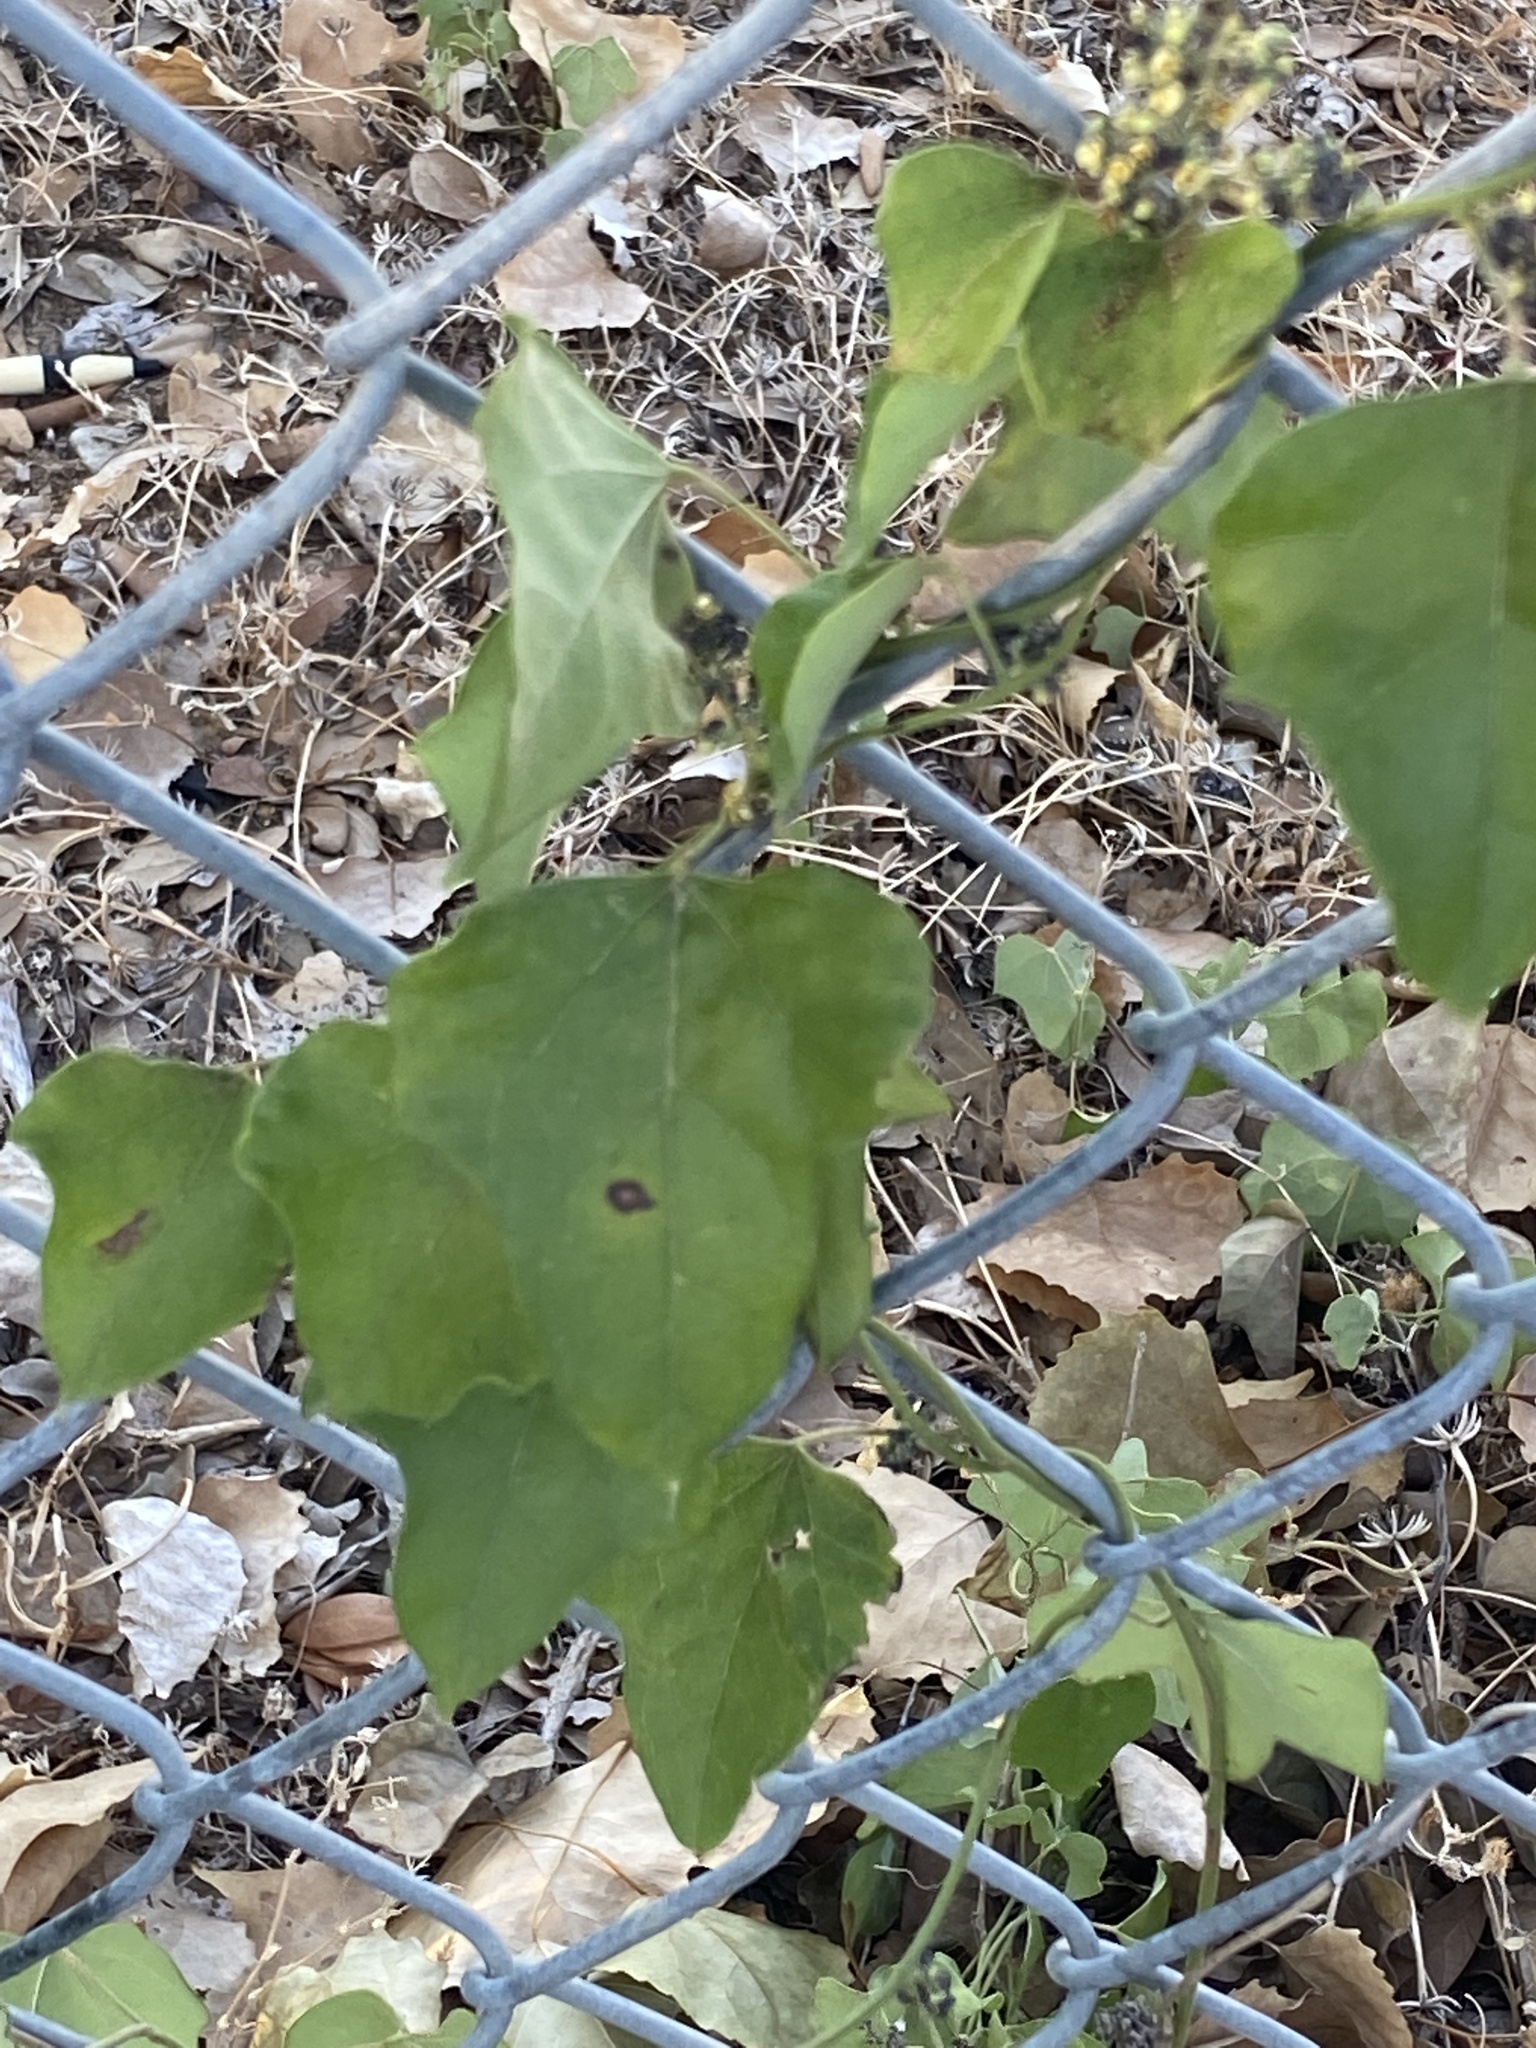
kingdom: Plantae
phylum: Tracheophyta
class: Magnoliopsida
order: Ranunculales
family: Menispermaceae
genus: Cocculus
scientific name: Cocculus carolinus
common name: Carolina moonseed
